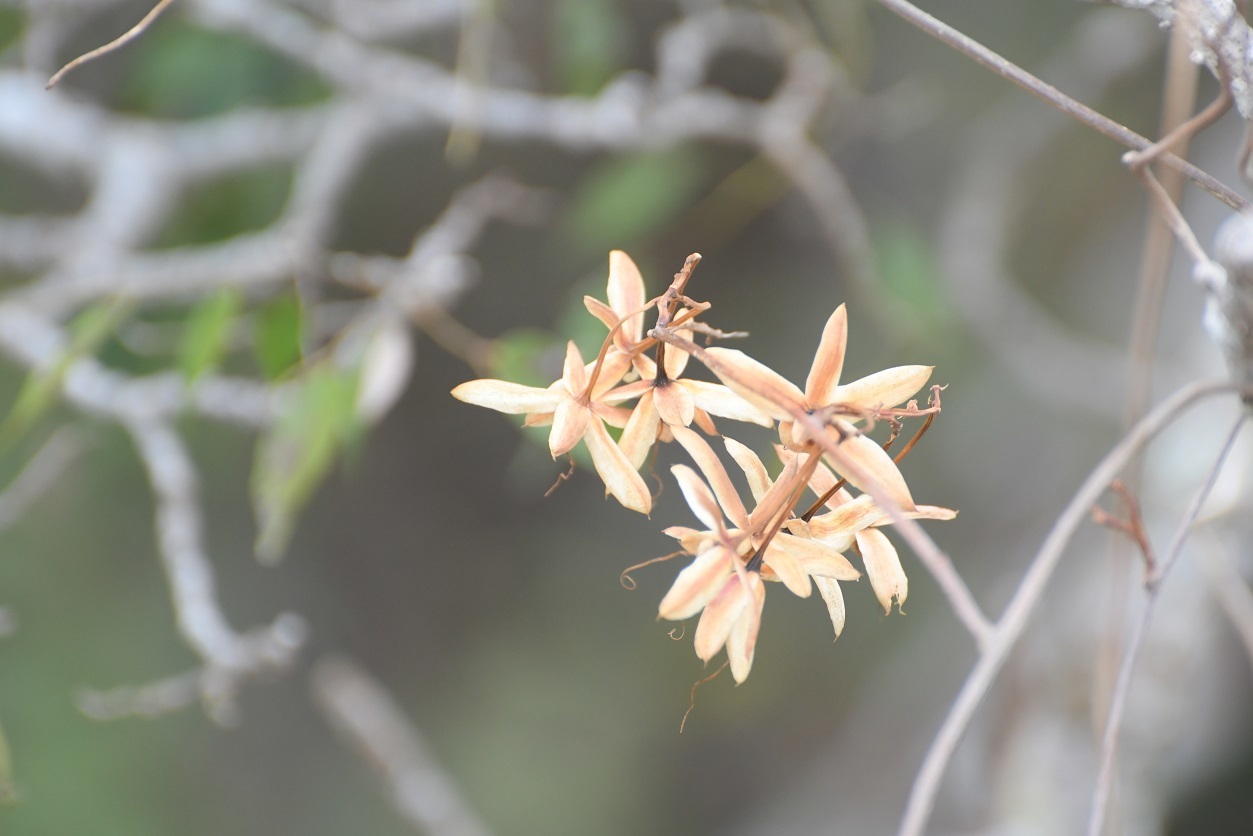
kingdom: Plantae
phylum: Tracheophyta
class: Magnoliopsida
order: Solanales
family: Convolvulaceae
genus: Ipomoea
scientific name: Ipomoea bernoulliana
